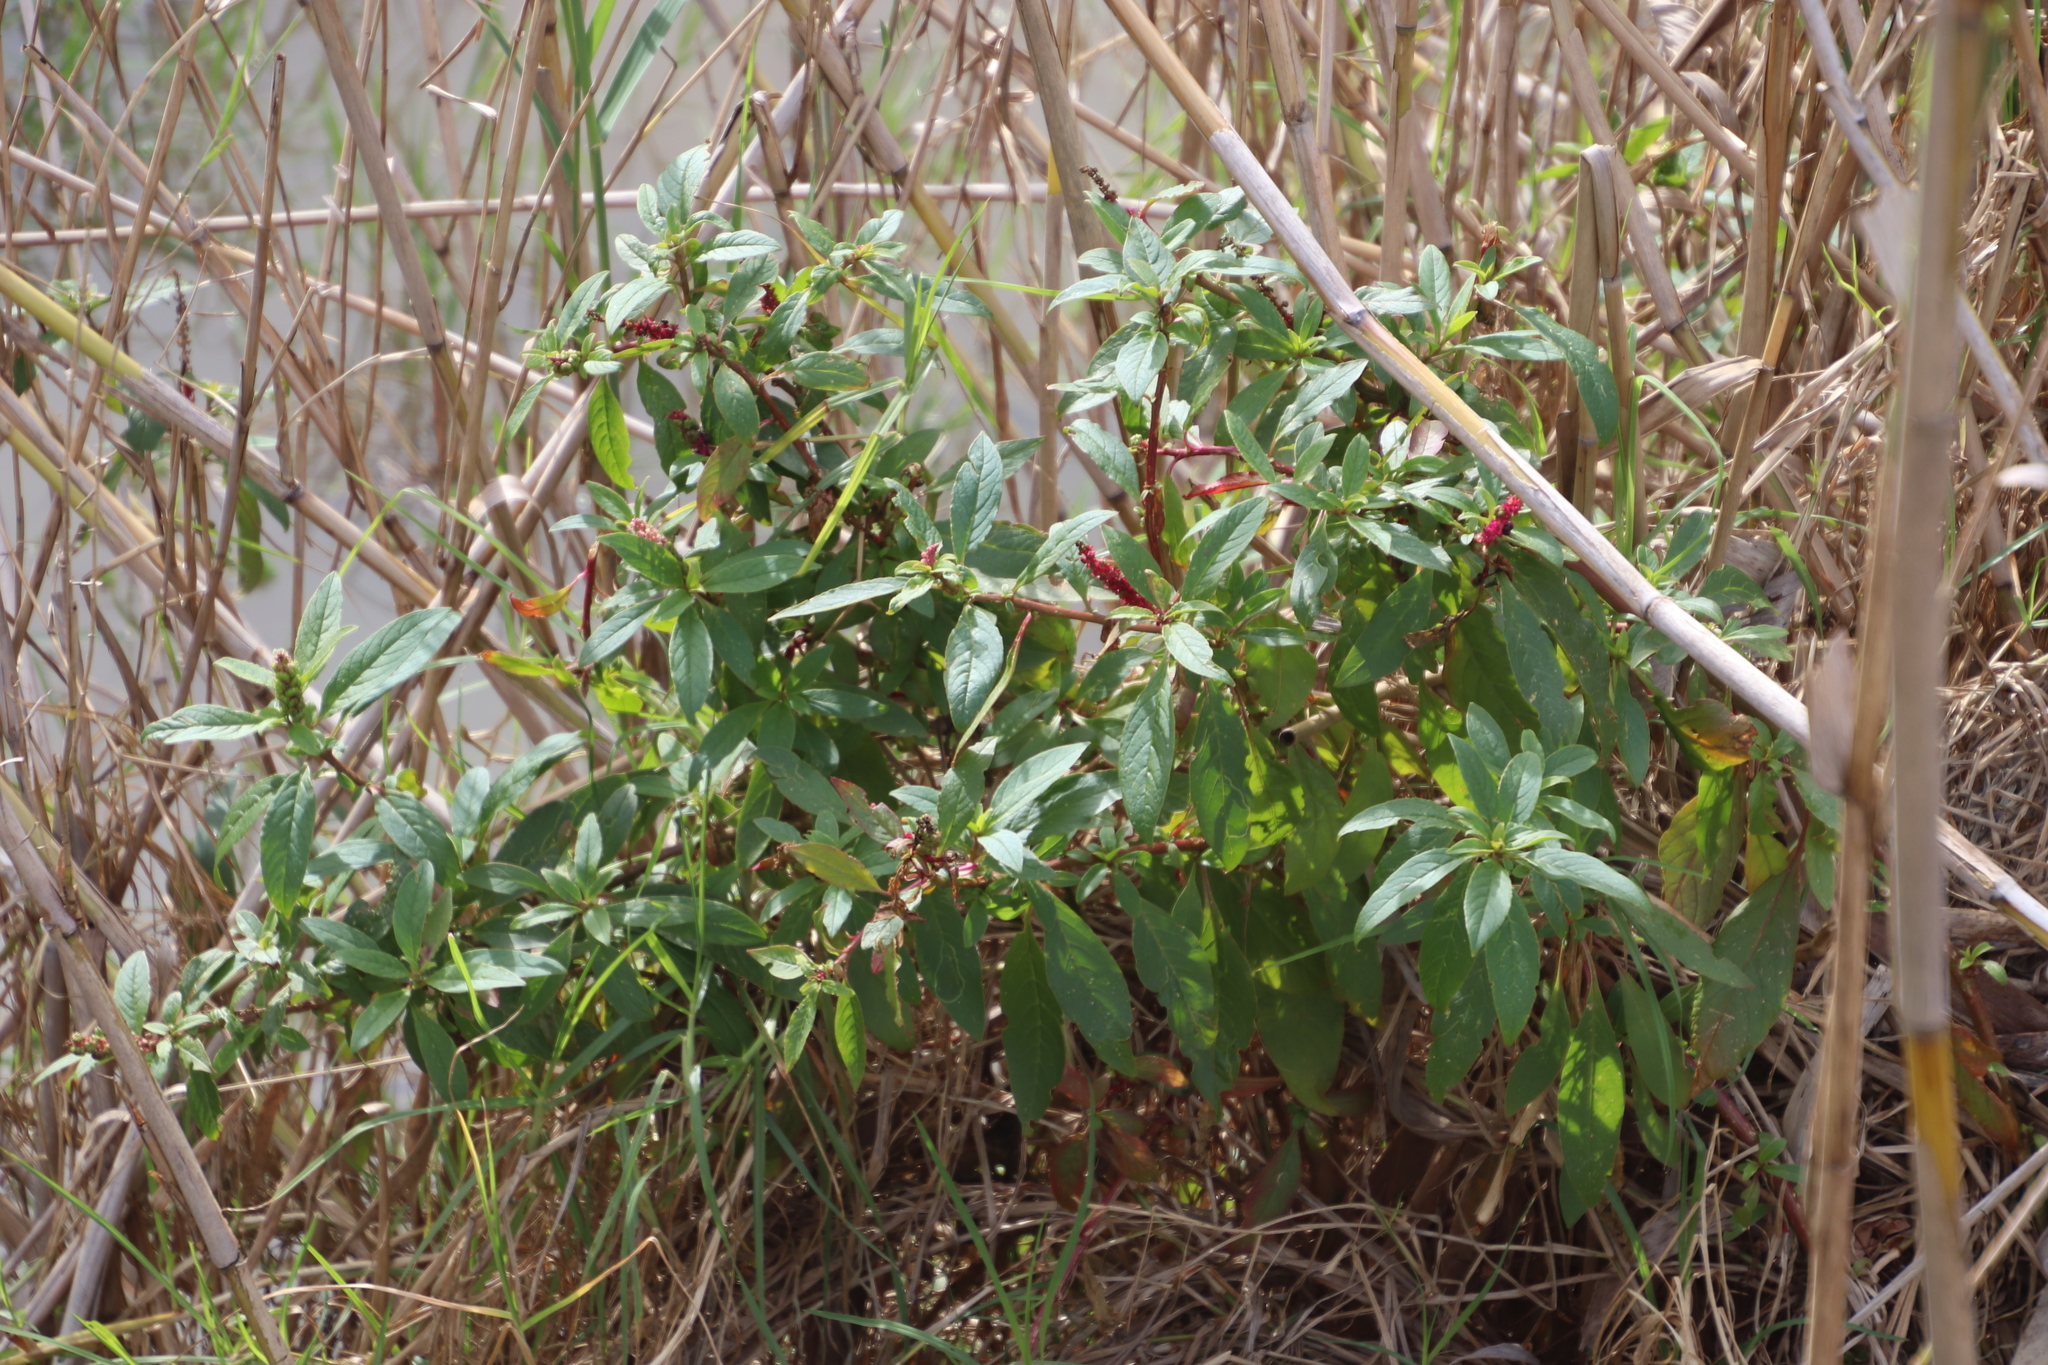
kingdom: Plantae
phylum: Tracheophyta
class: Magnoliopsida
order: Caryophyllales
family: Phytolaccaceae
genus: Phytolacca
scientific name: Phytolacca icosandra
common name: Button pokeweed
